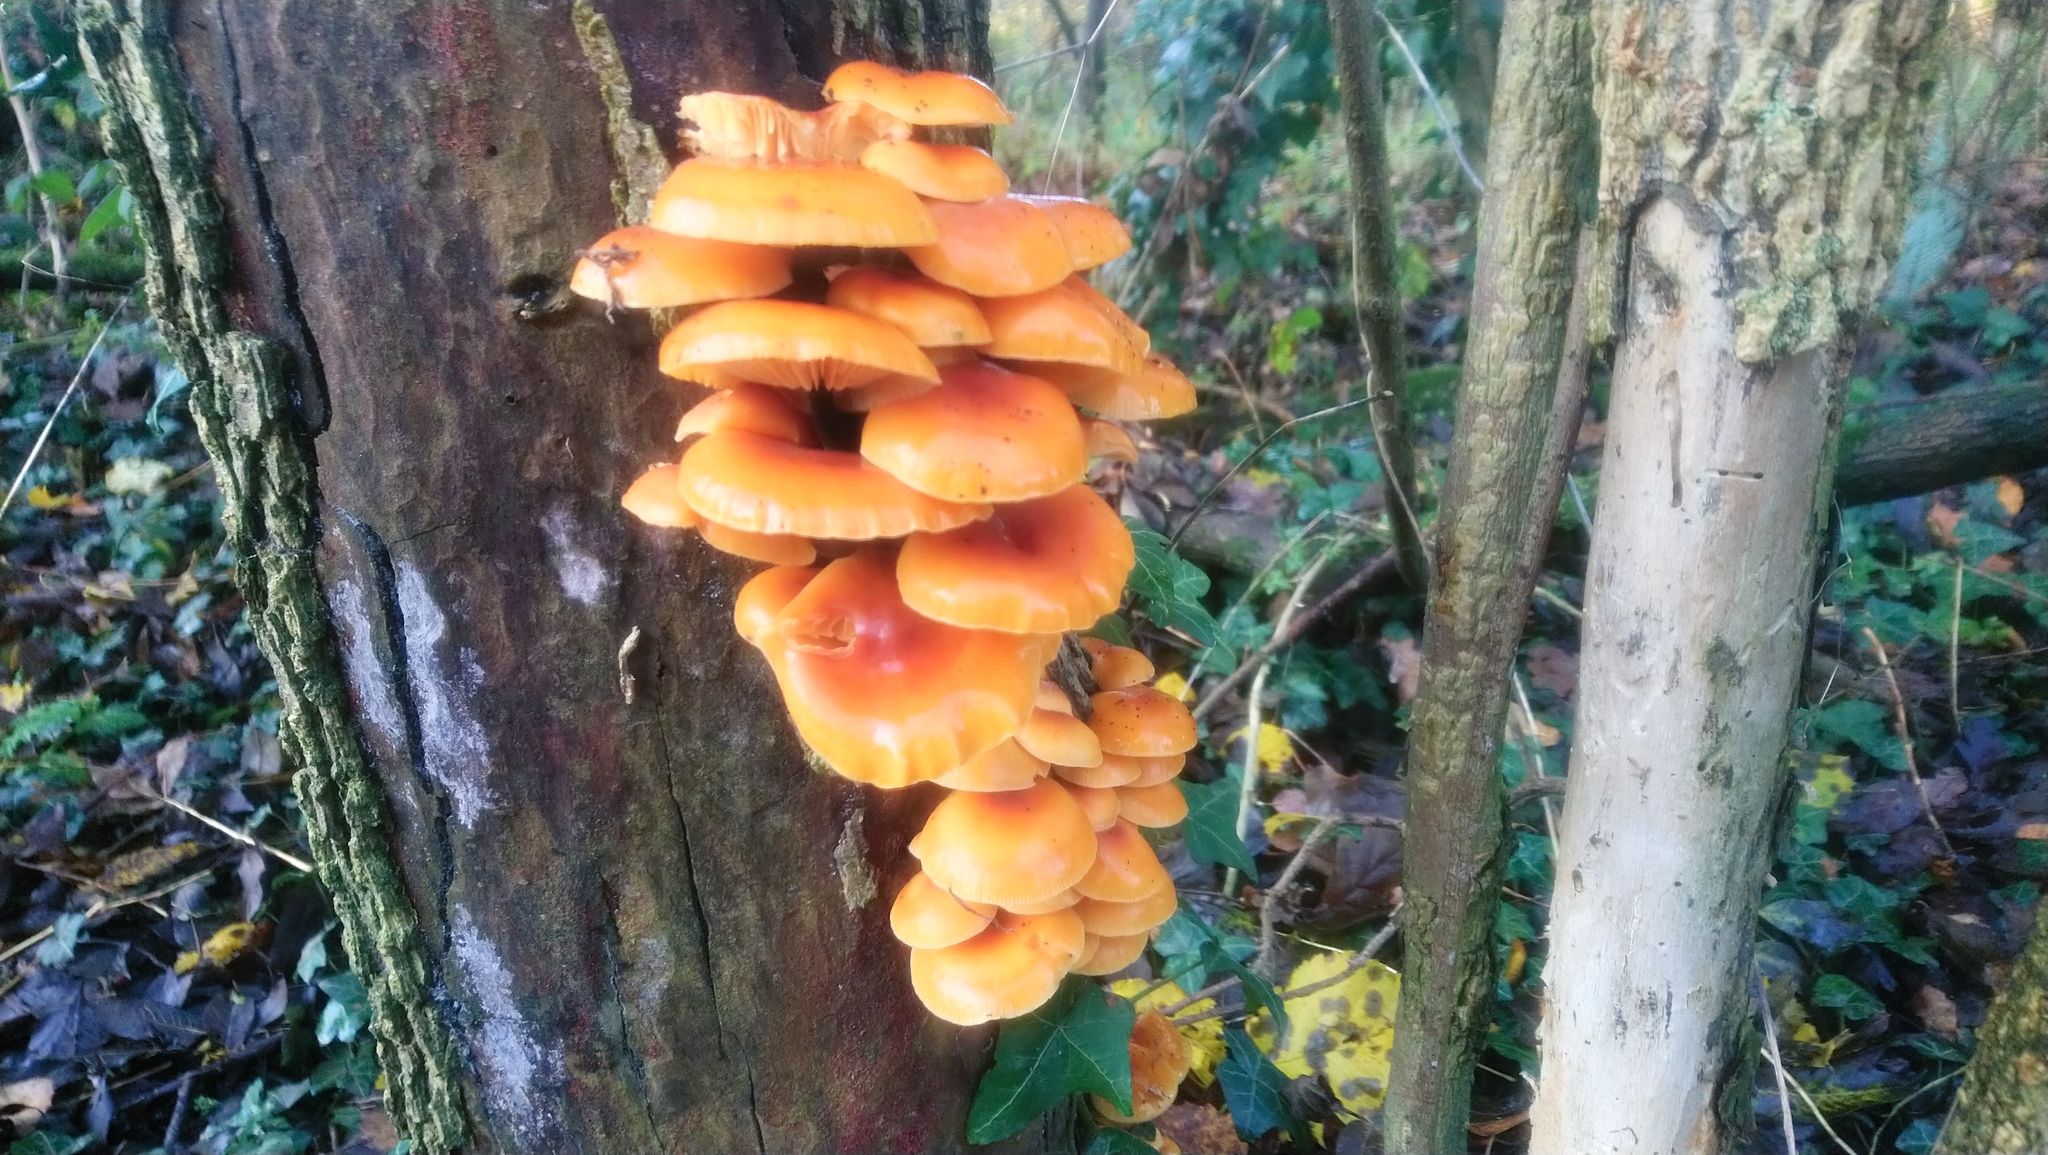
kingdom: Fungi
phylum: Basidiomycota
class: Agaricomycetes
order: Agaricales
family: Physalacriaceae
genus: Flammulina
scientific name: Flammulina
